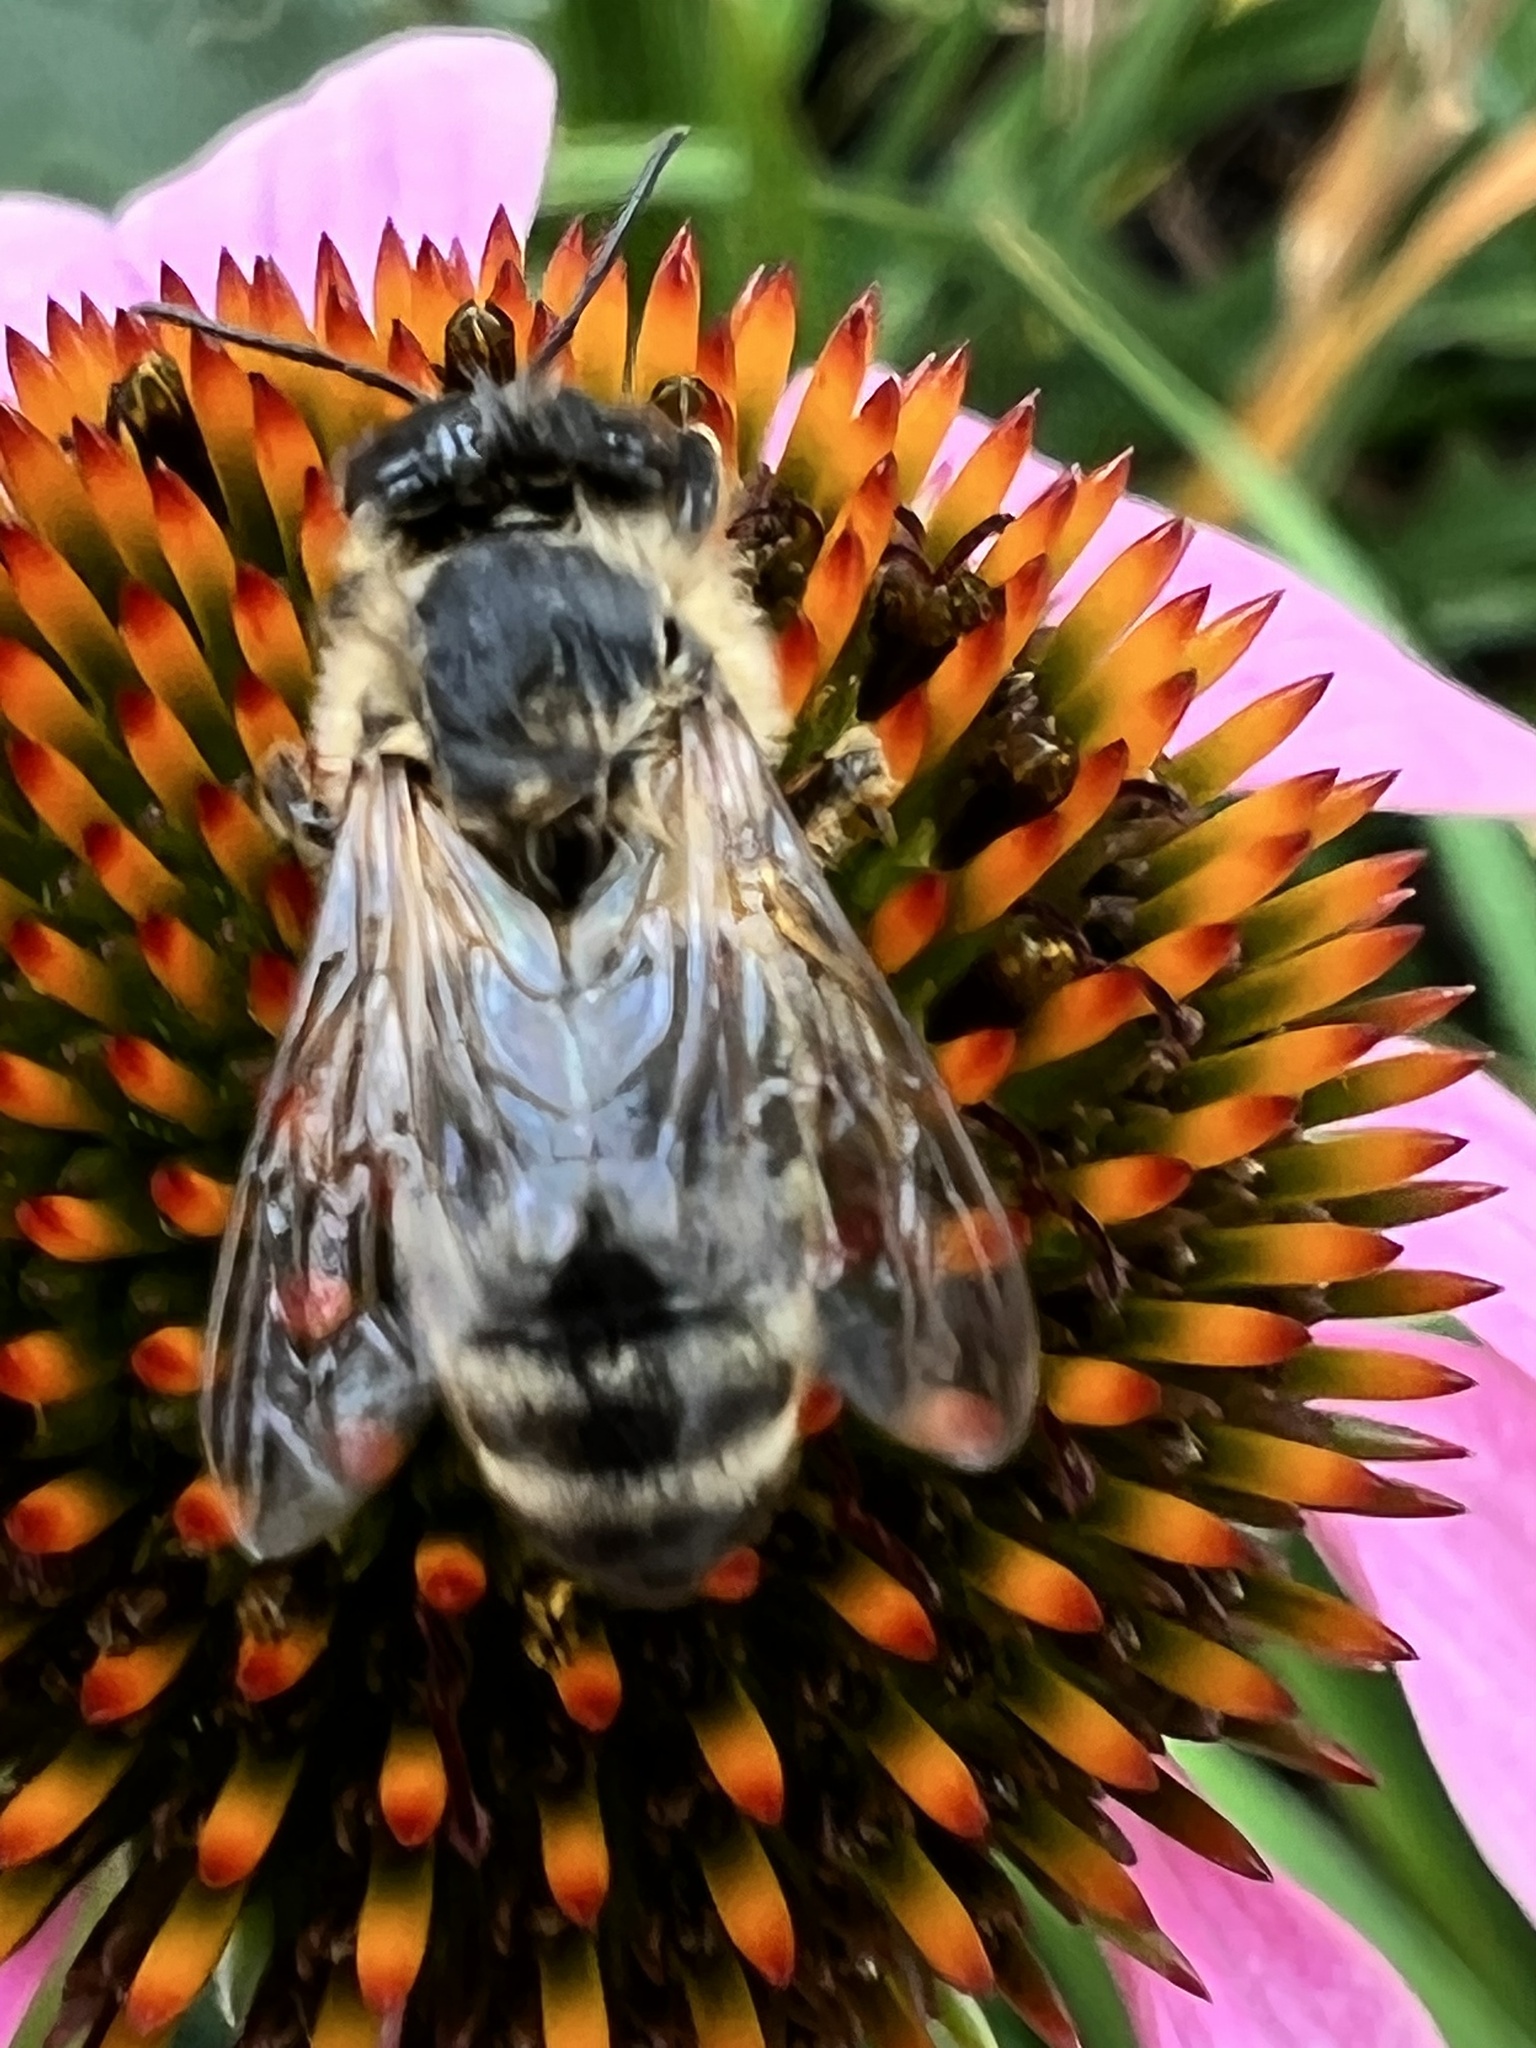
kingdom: Animalia
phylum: Arthropoda
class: Insecta
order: Hymenoptera
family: Apidae
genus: Apis
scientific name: Apis mellifera
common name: Honey bee
